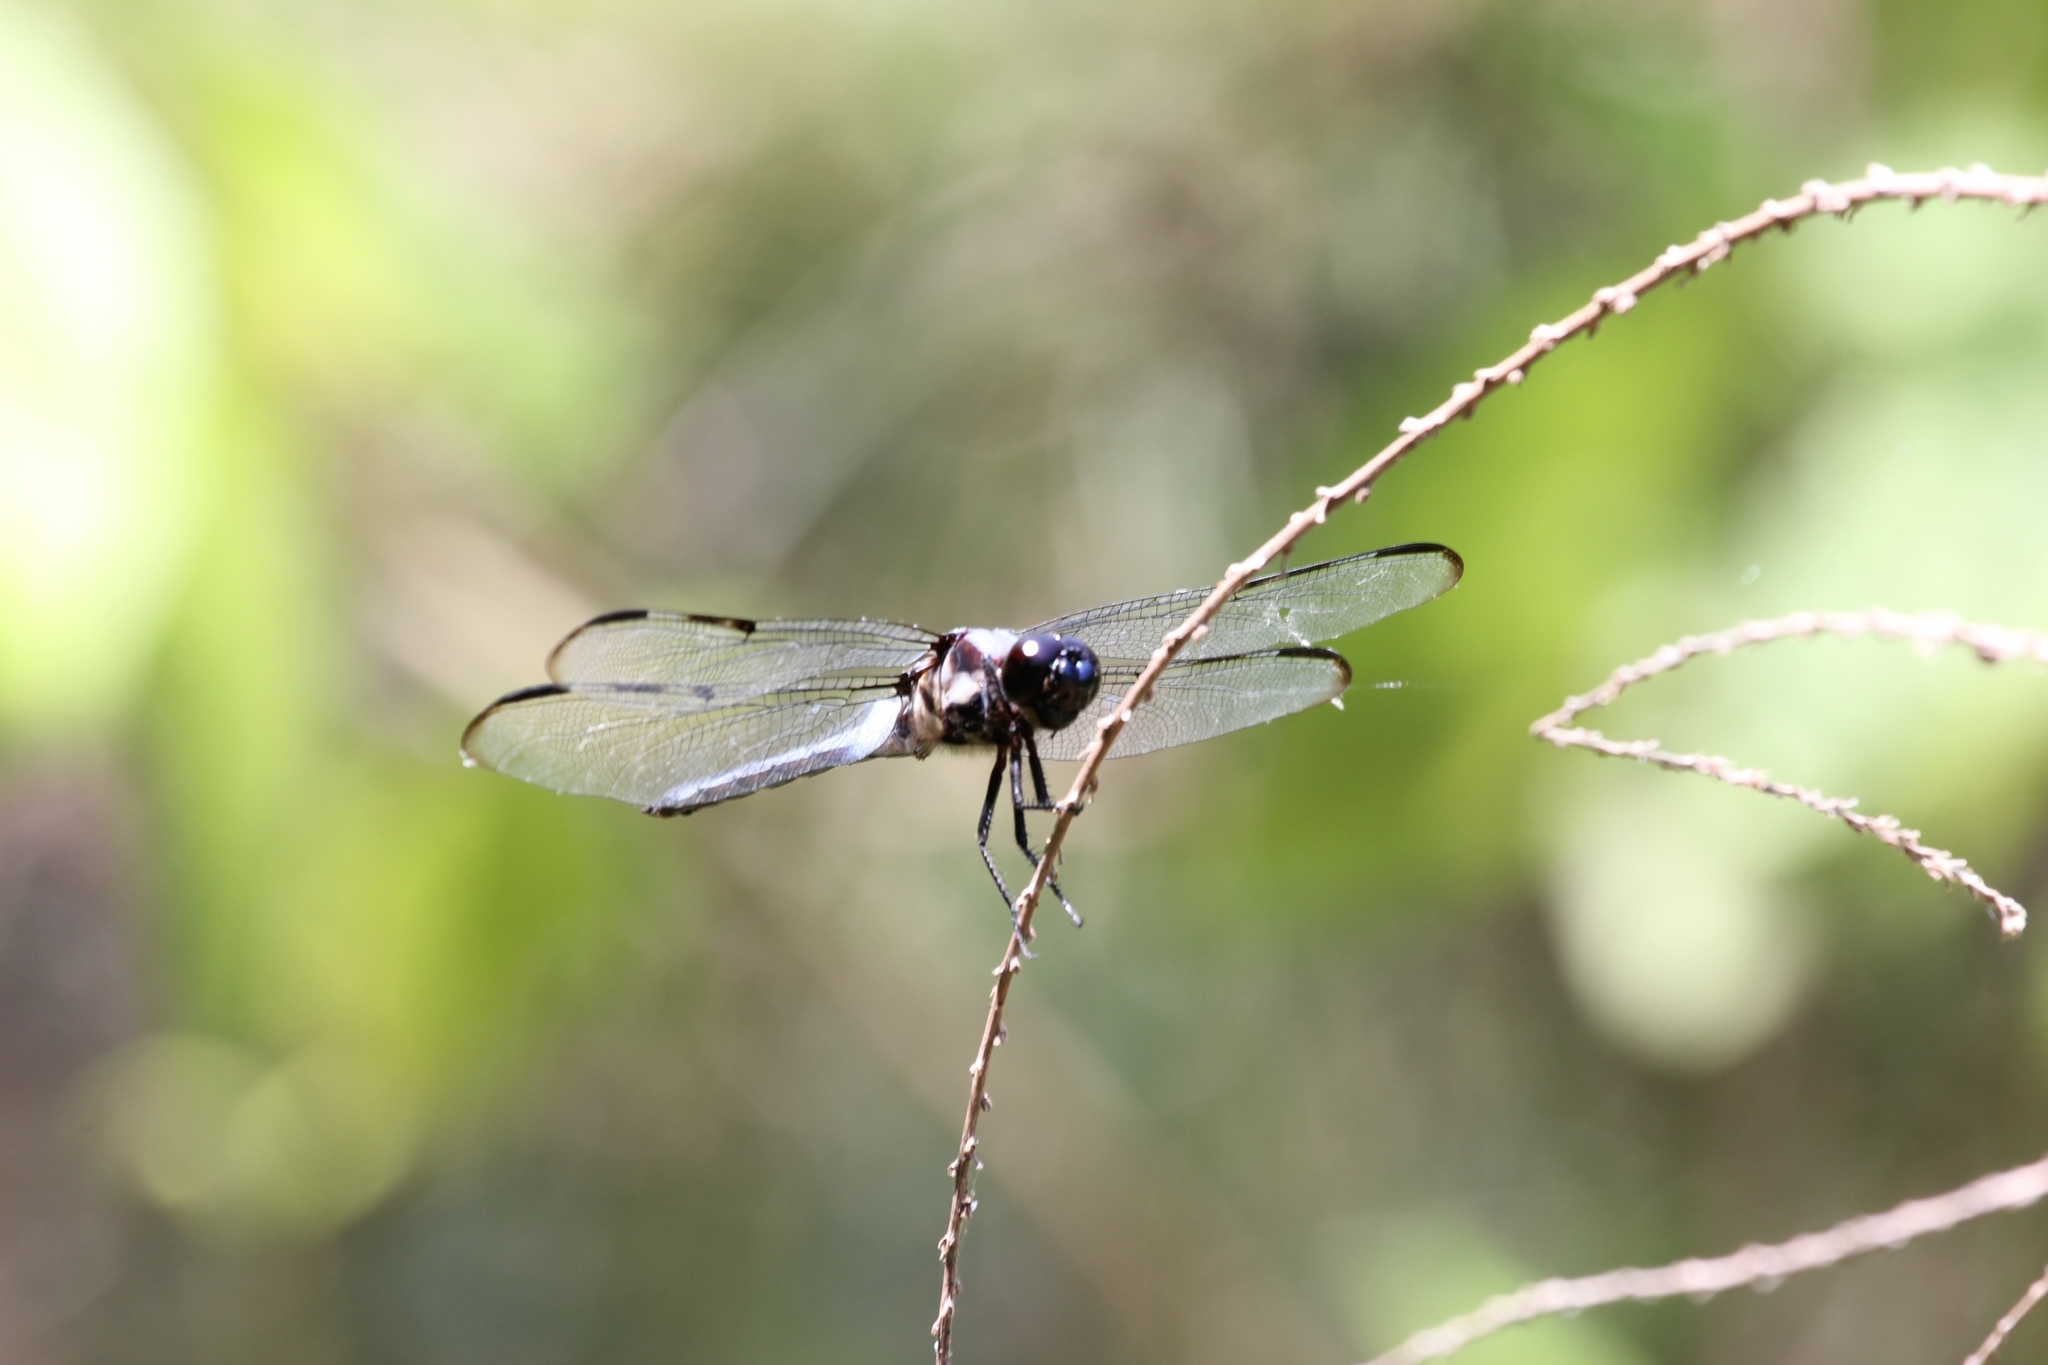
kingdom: Animalia
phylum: Arthropoda
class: Insecta
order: Odonata
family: Libellulidae
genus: Libellula
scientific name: Libellula axilena
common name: Bar-winged skimmer
